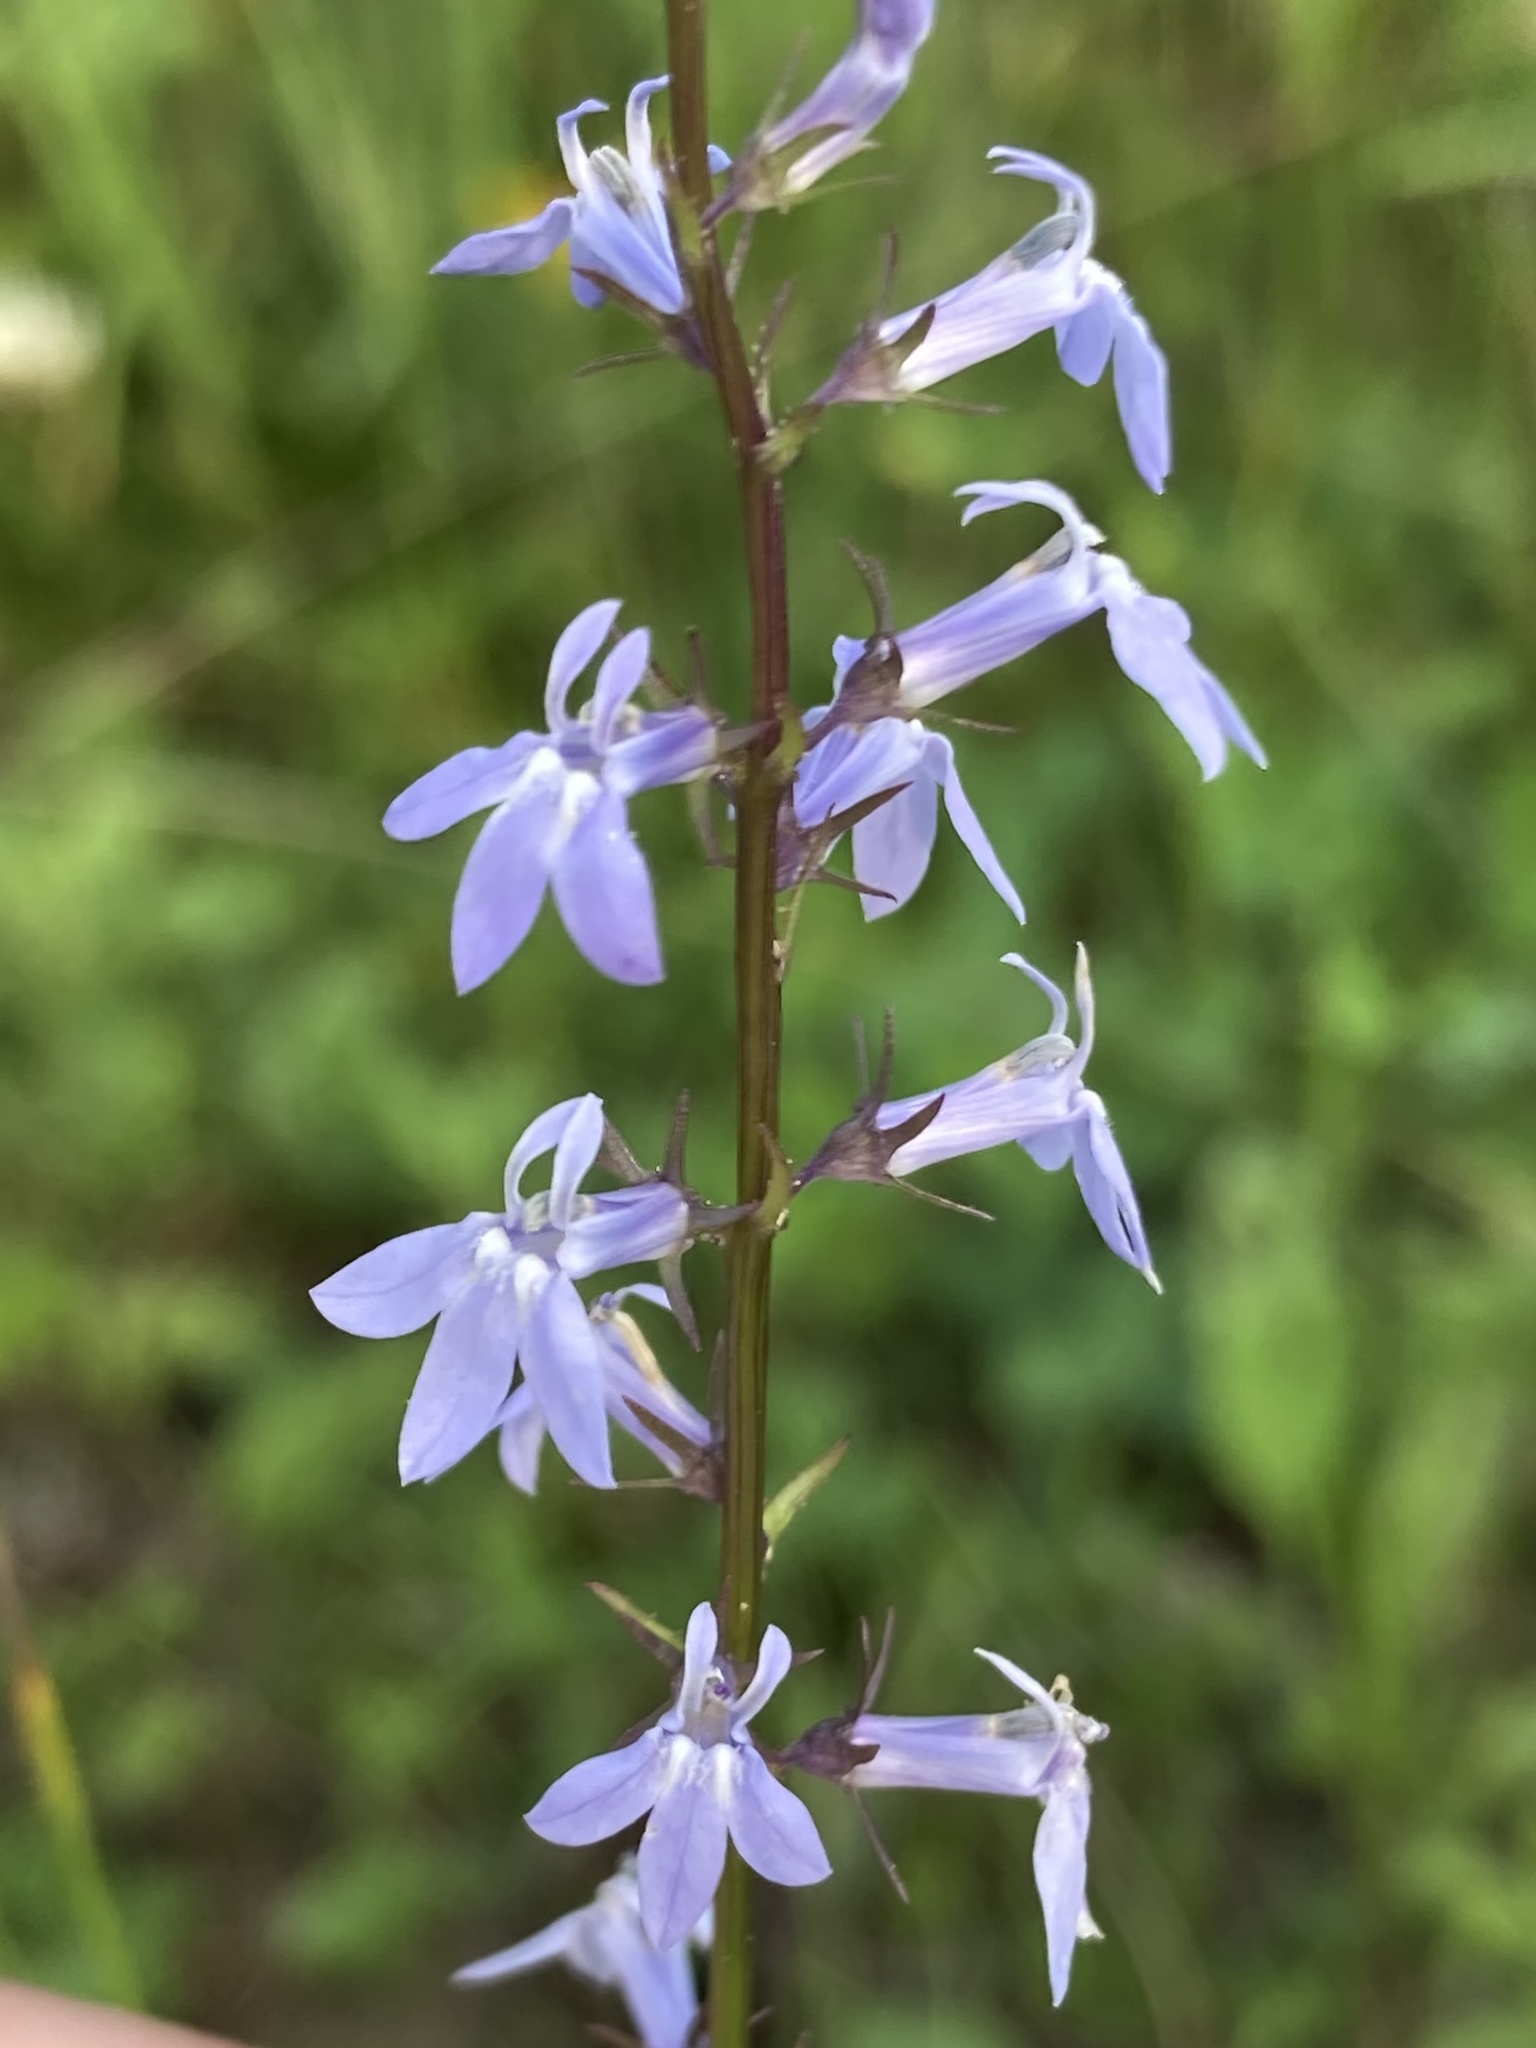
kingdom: Plantae
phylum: Tracheophyta
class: Magnoliopsida
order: Asterales
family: Campanulaceae
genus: Lobelia
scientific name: Lobelia spicata
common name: Pale-spike lobelia
